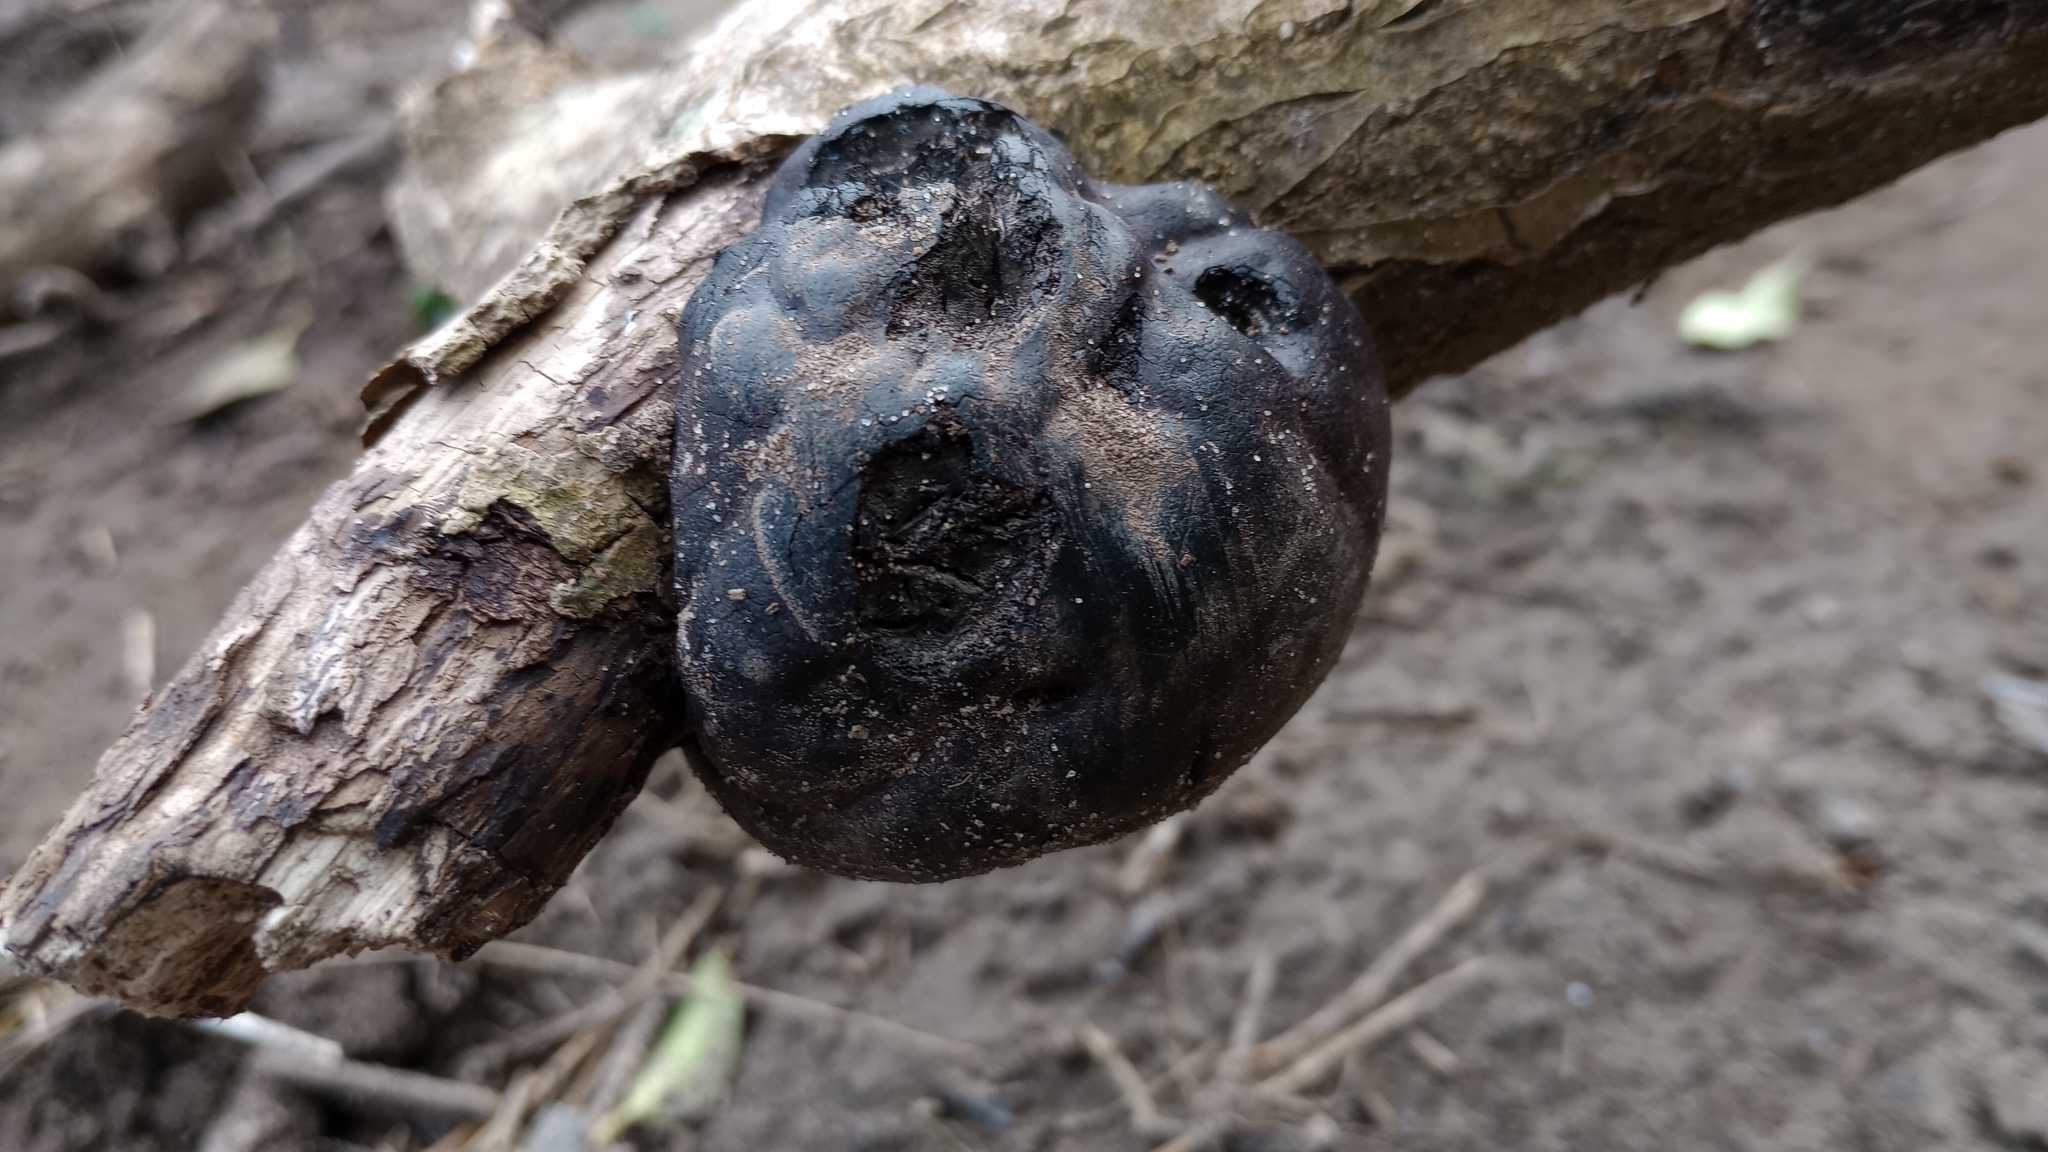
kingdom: Fungi
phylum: Ascomycota
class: Sordariomycetes
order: Xylariales
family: Hypoxylaceae
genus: Daldinia
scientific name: Daldinia concentrica
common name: Cramp balls
